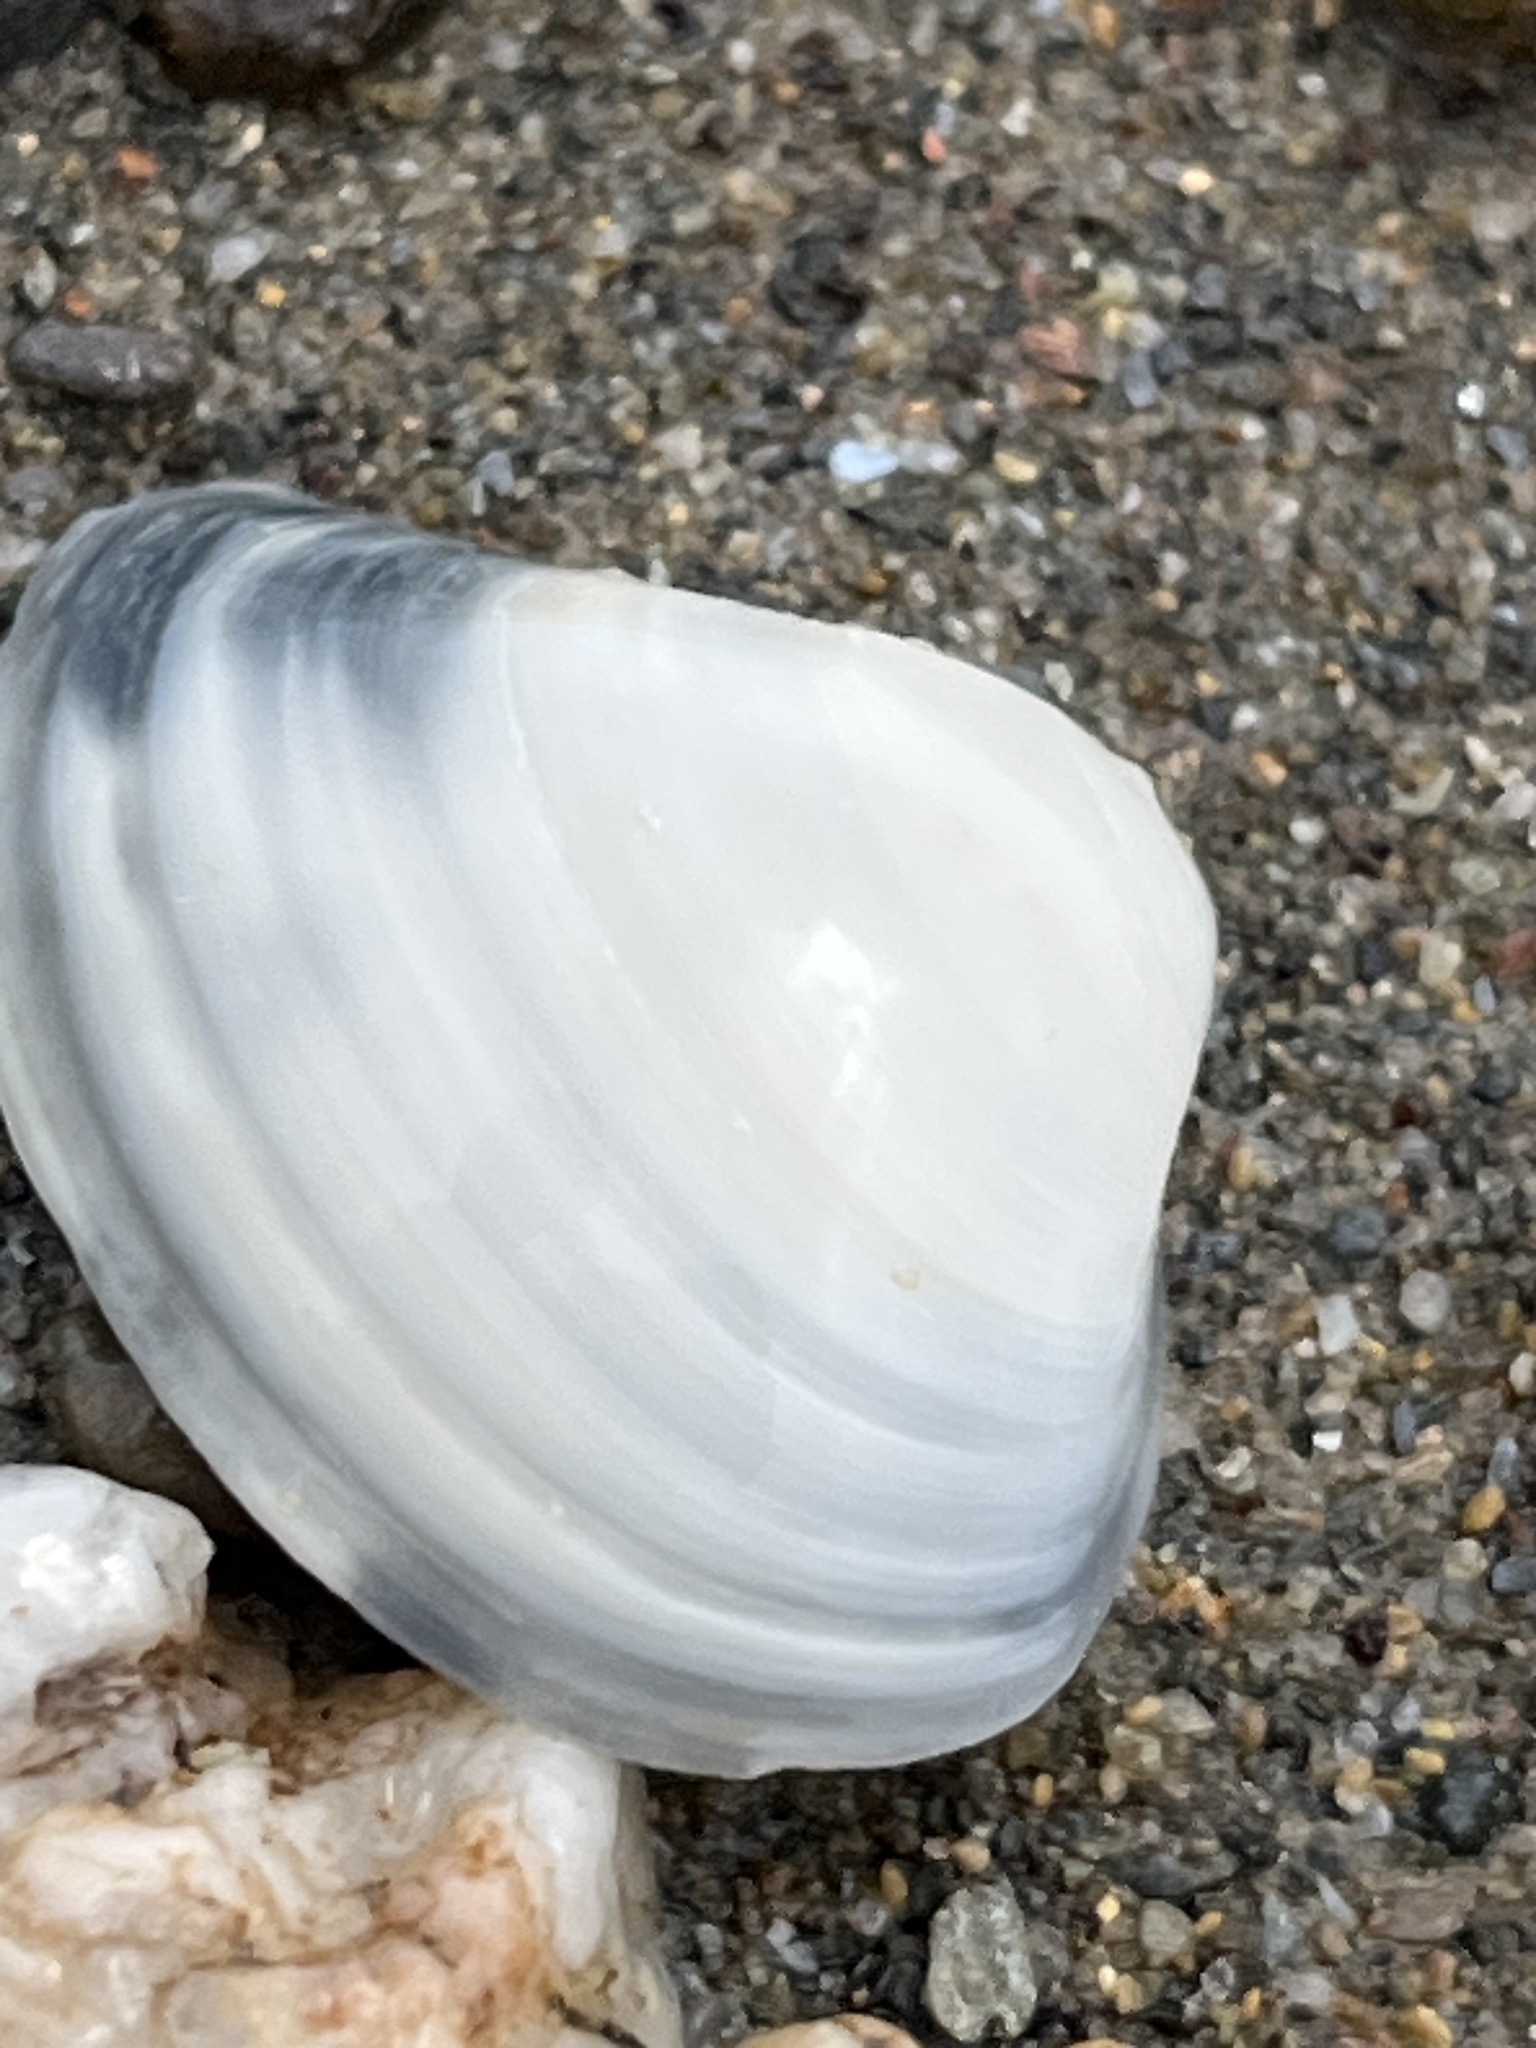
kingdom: Animalia
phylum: Mollusca
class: Bivalvia
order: Venerida
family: Mactridae
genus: Spisula
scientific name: Spisula subtruncata
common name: Cut trough shell
